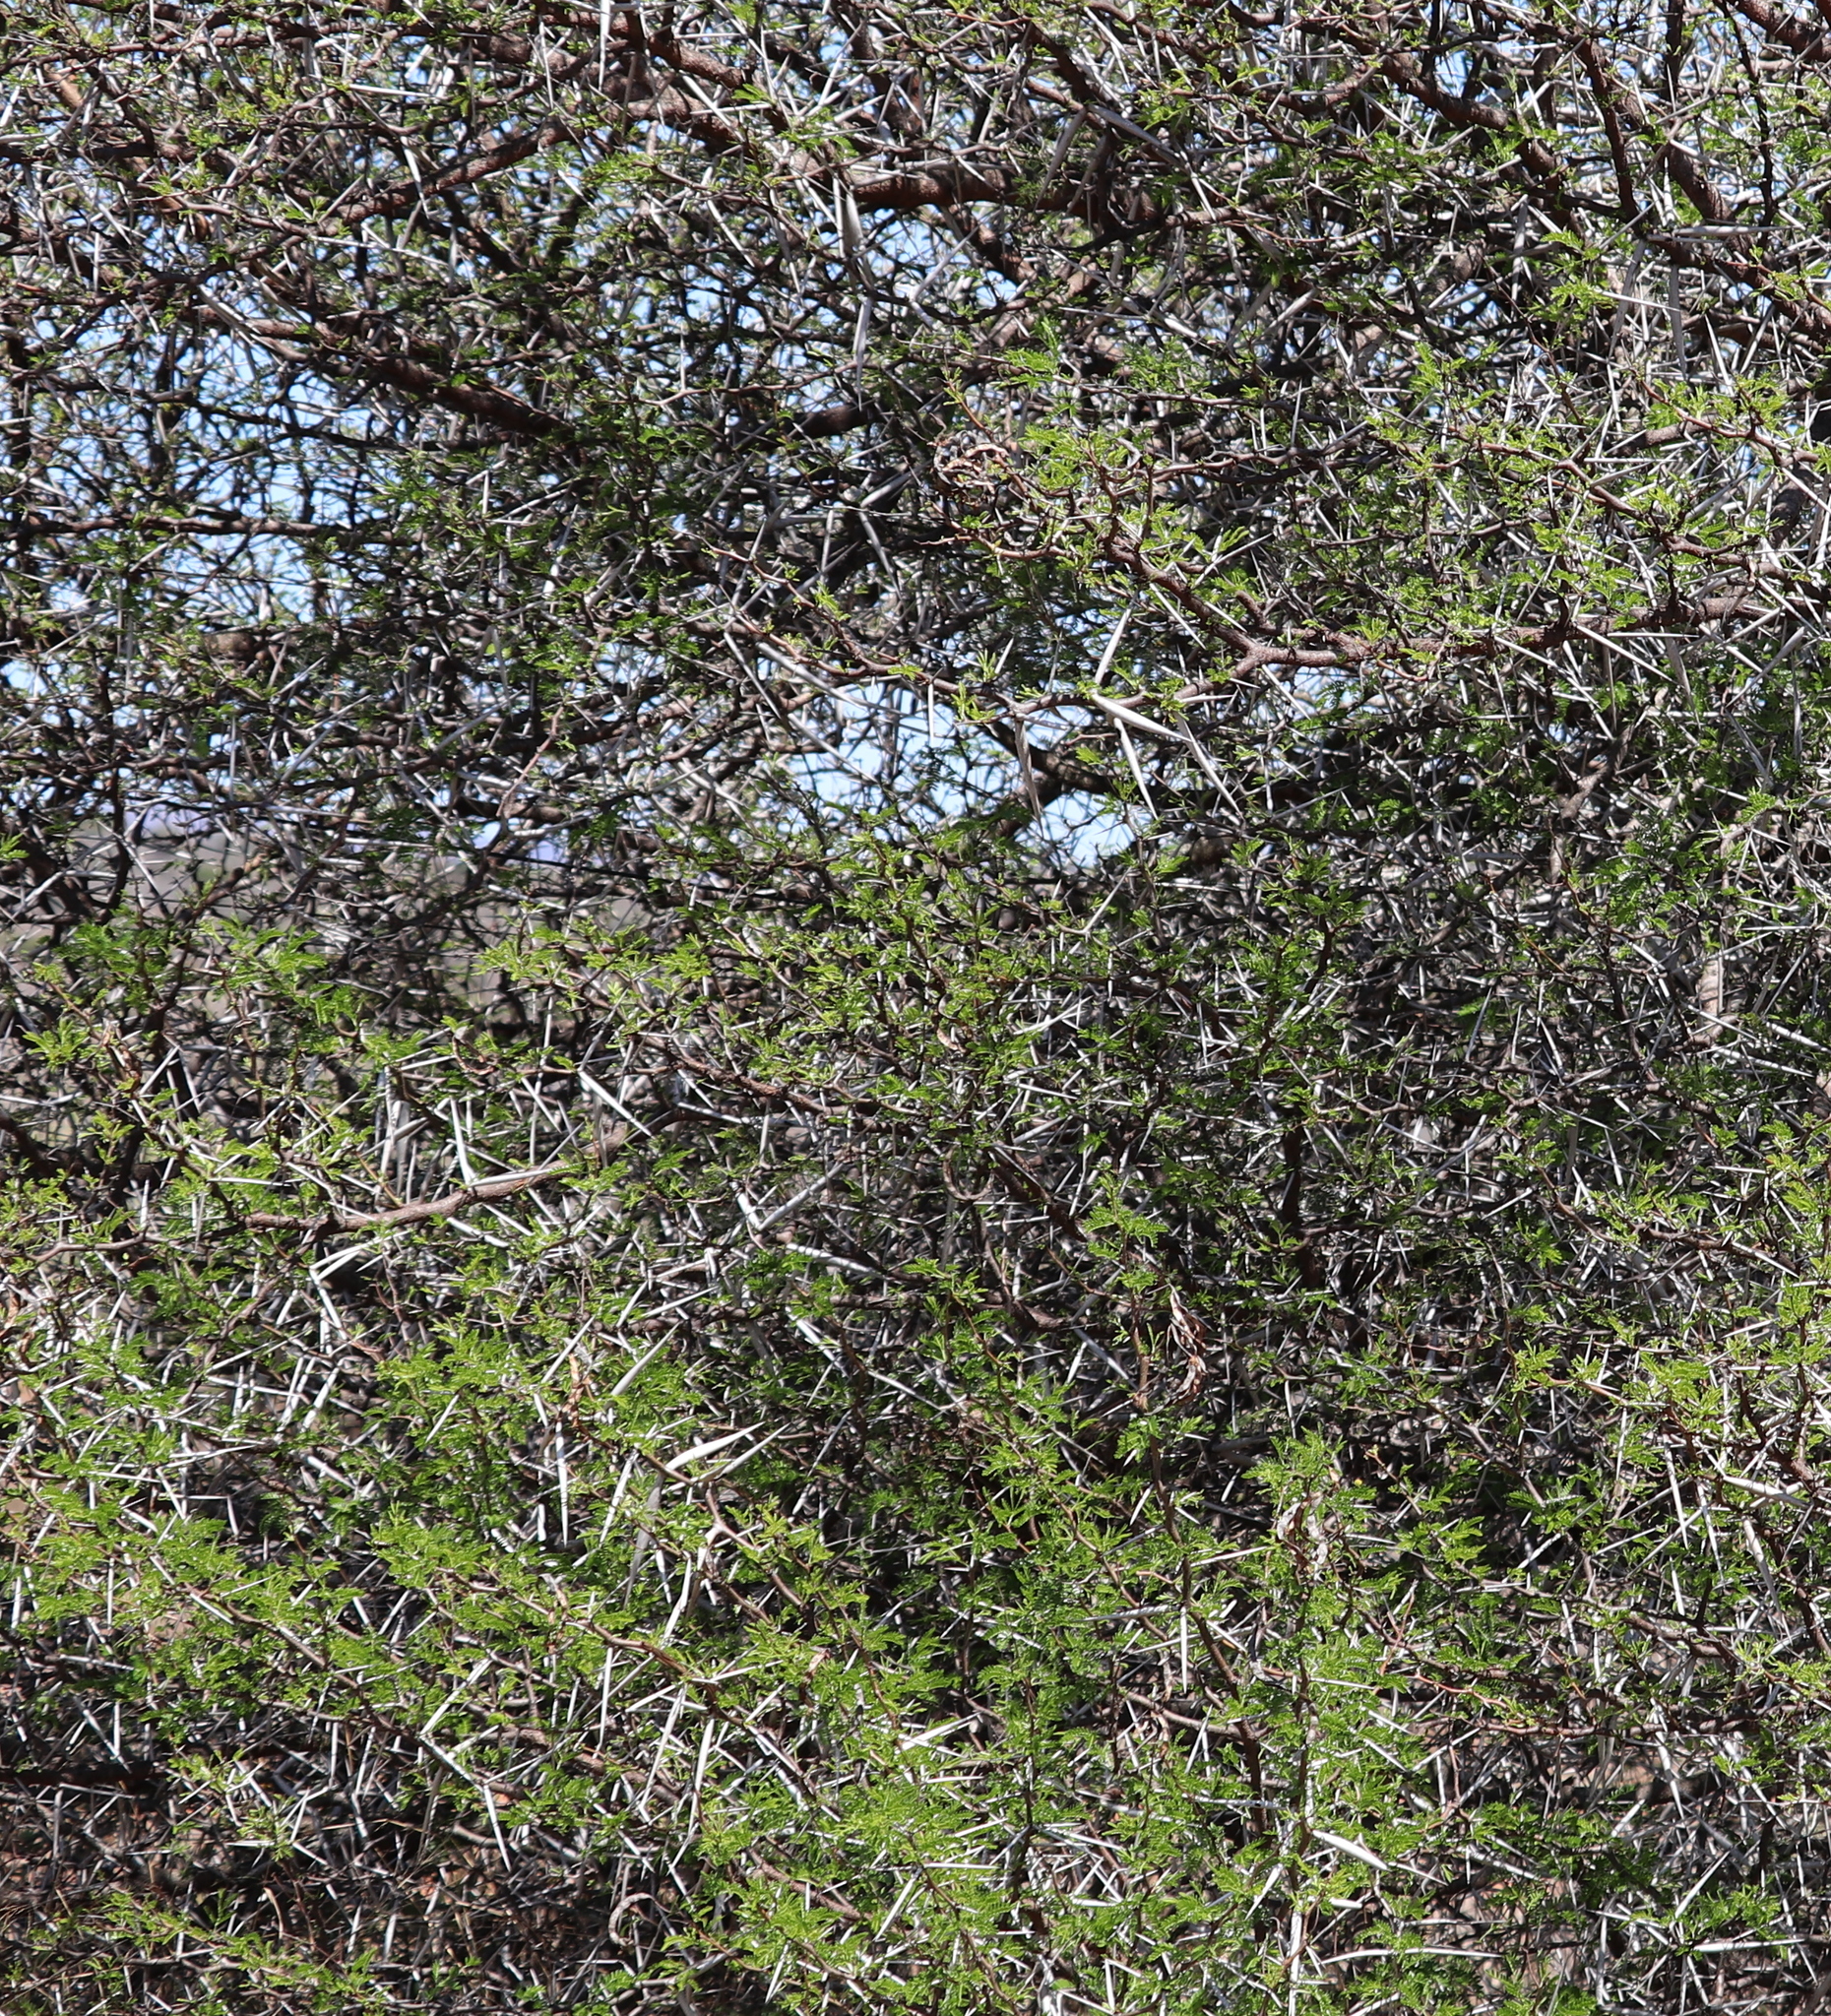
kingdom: Plantae
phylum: Tracheophyta
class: Magnoliopsida
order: Fabales
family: Fabaceae
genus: Vachellia
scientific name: Vachellia karroo
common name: Sweet thorn
